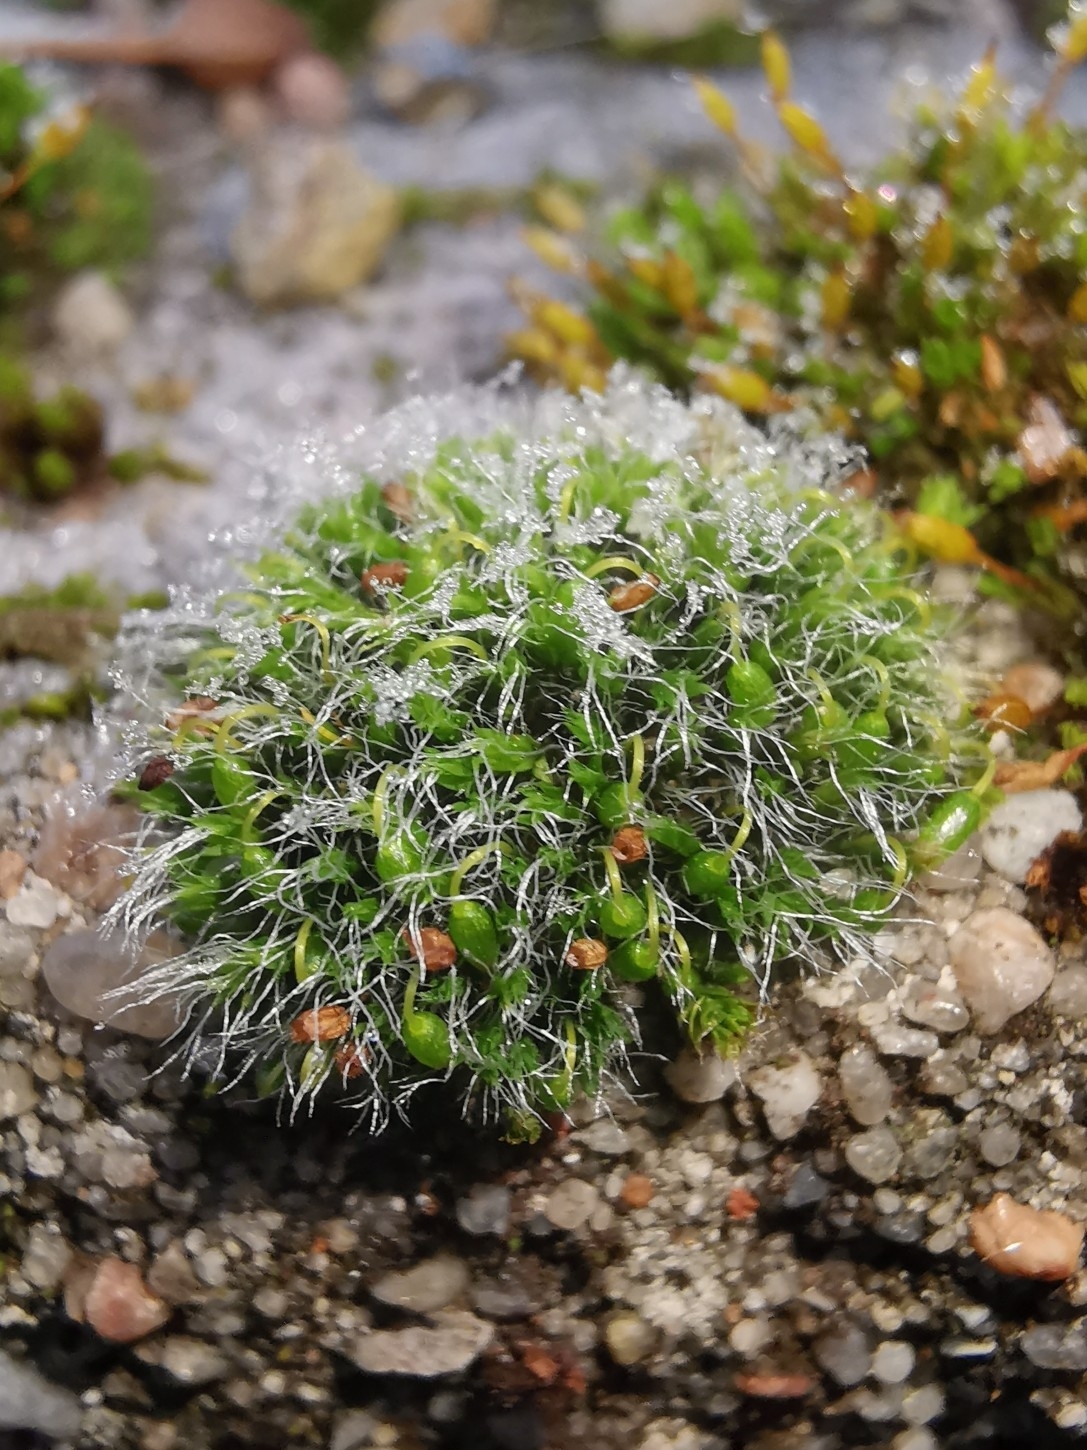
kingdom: Plantae
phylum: Bryophyta
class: Bryopsida
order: Grimmiales
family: Grimmiaceae
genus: Grimmia
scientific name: Grimmia pulvinata
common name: Grey-cushioned grimmia
